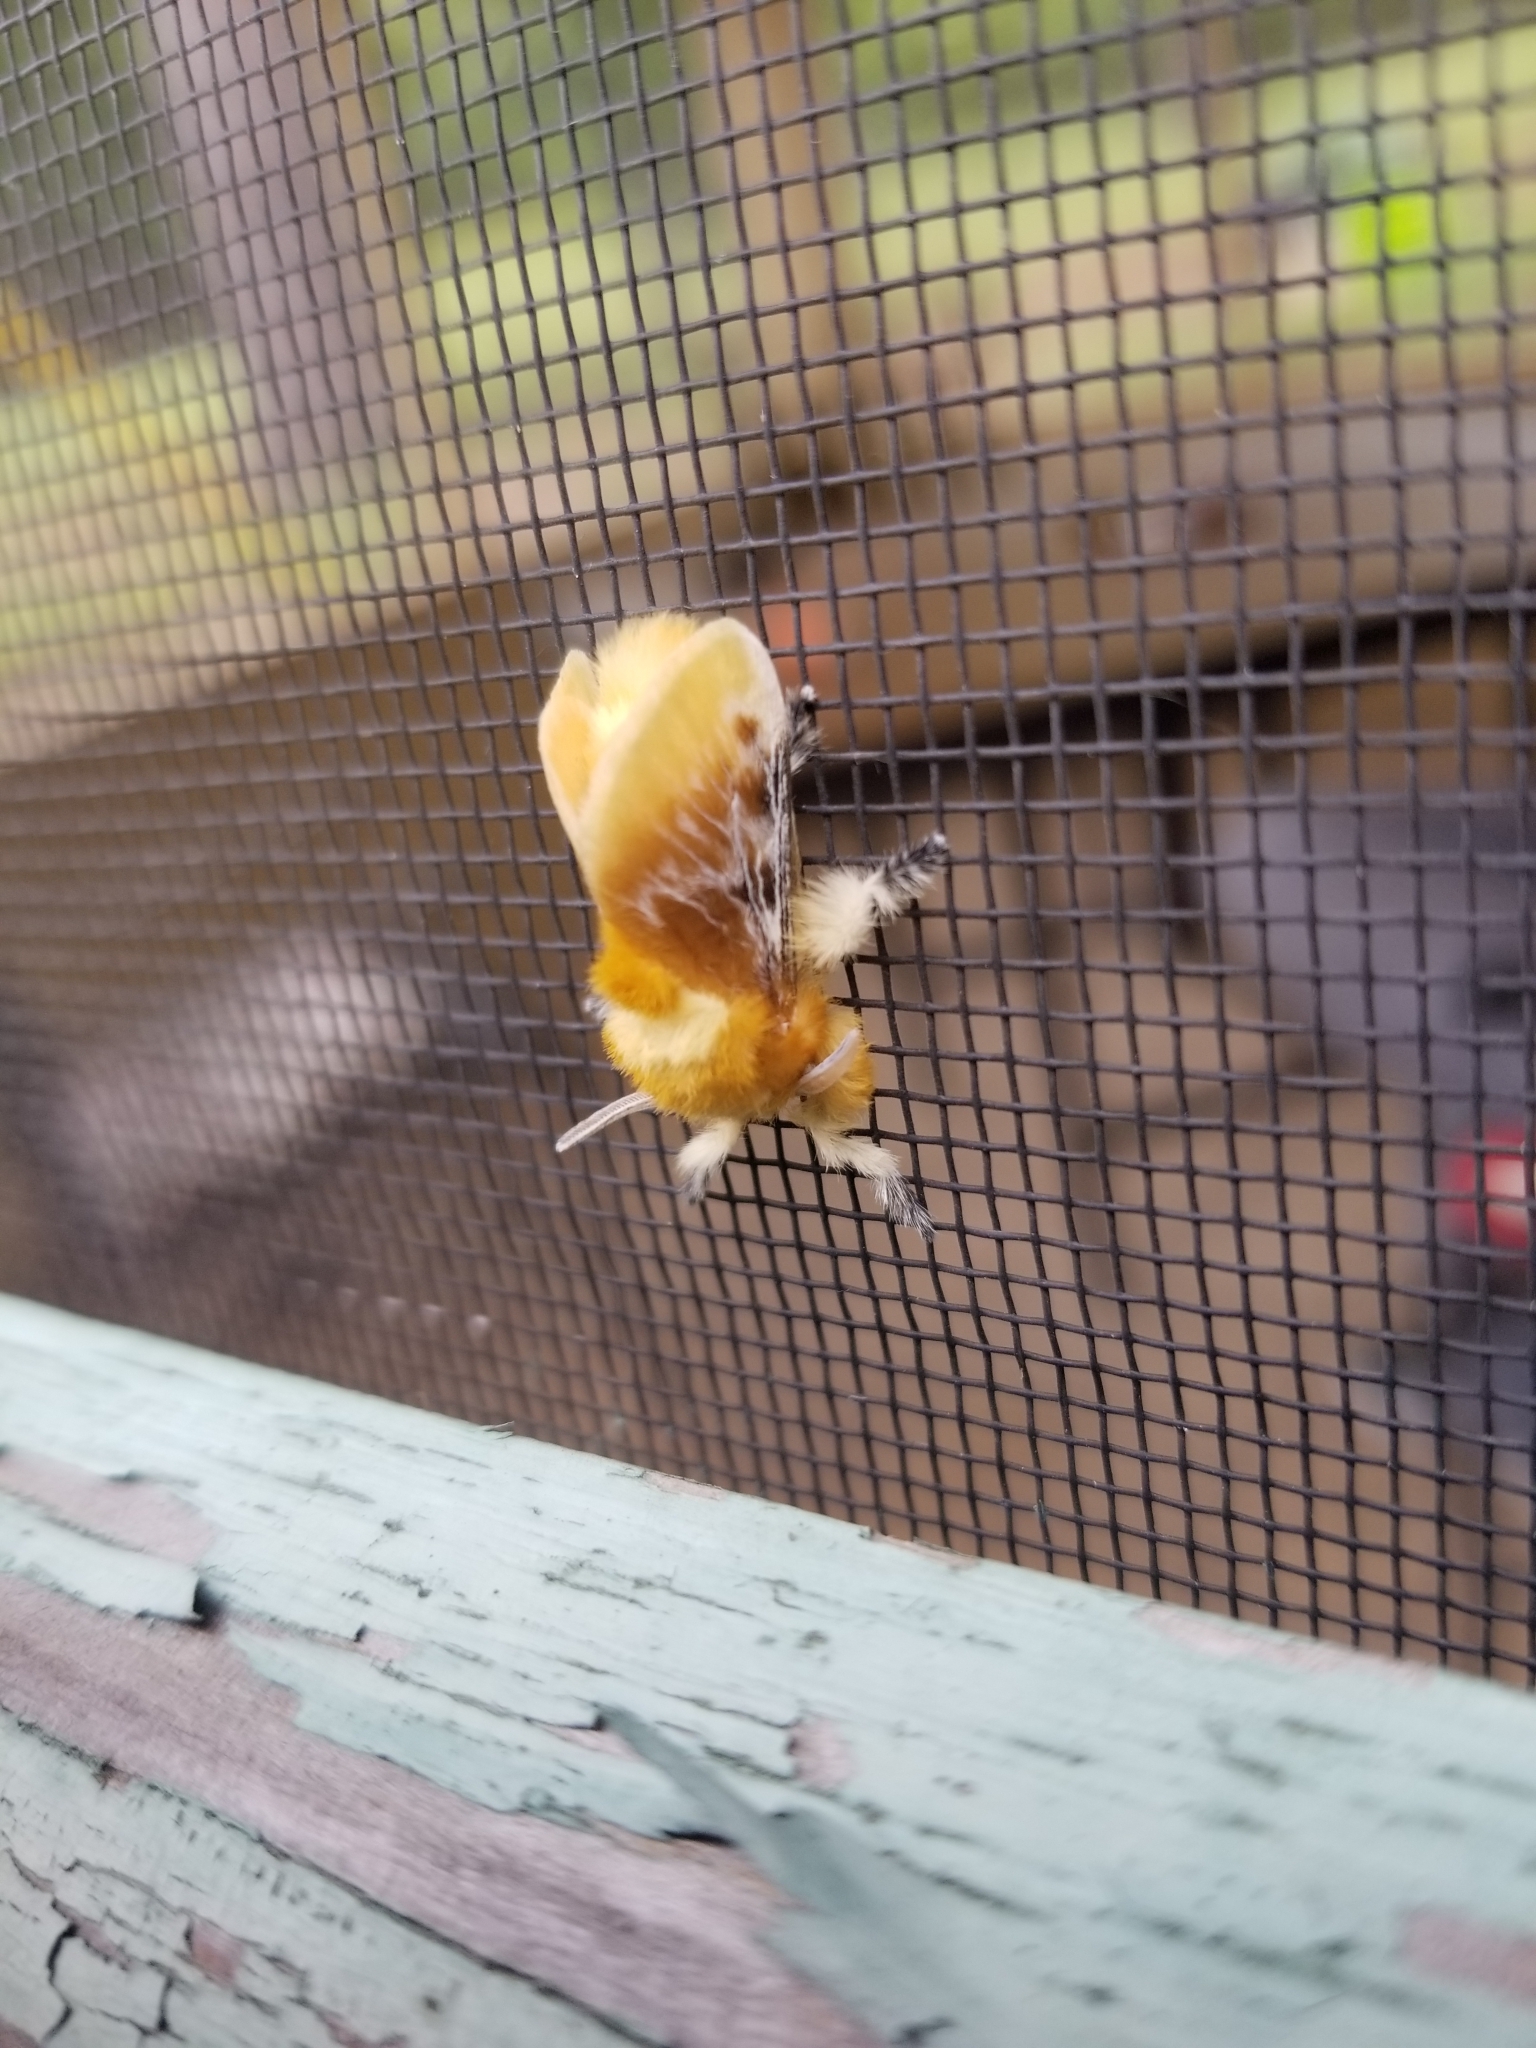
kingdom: Animalia
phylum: Arthropoda
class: Insecta
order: Lepidoptera
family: Megalopygidae
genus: Megalopyge
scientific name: Megalopyge opercularis
